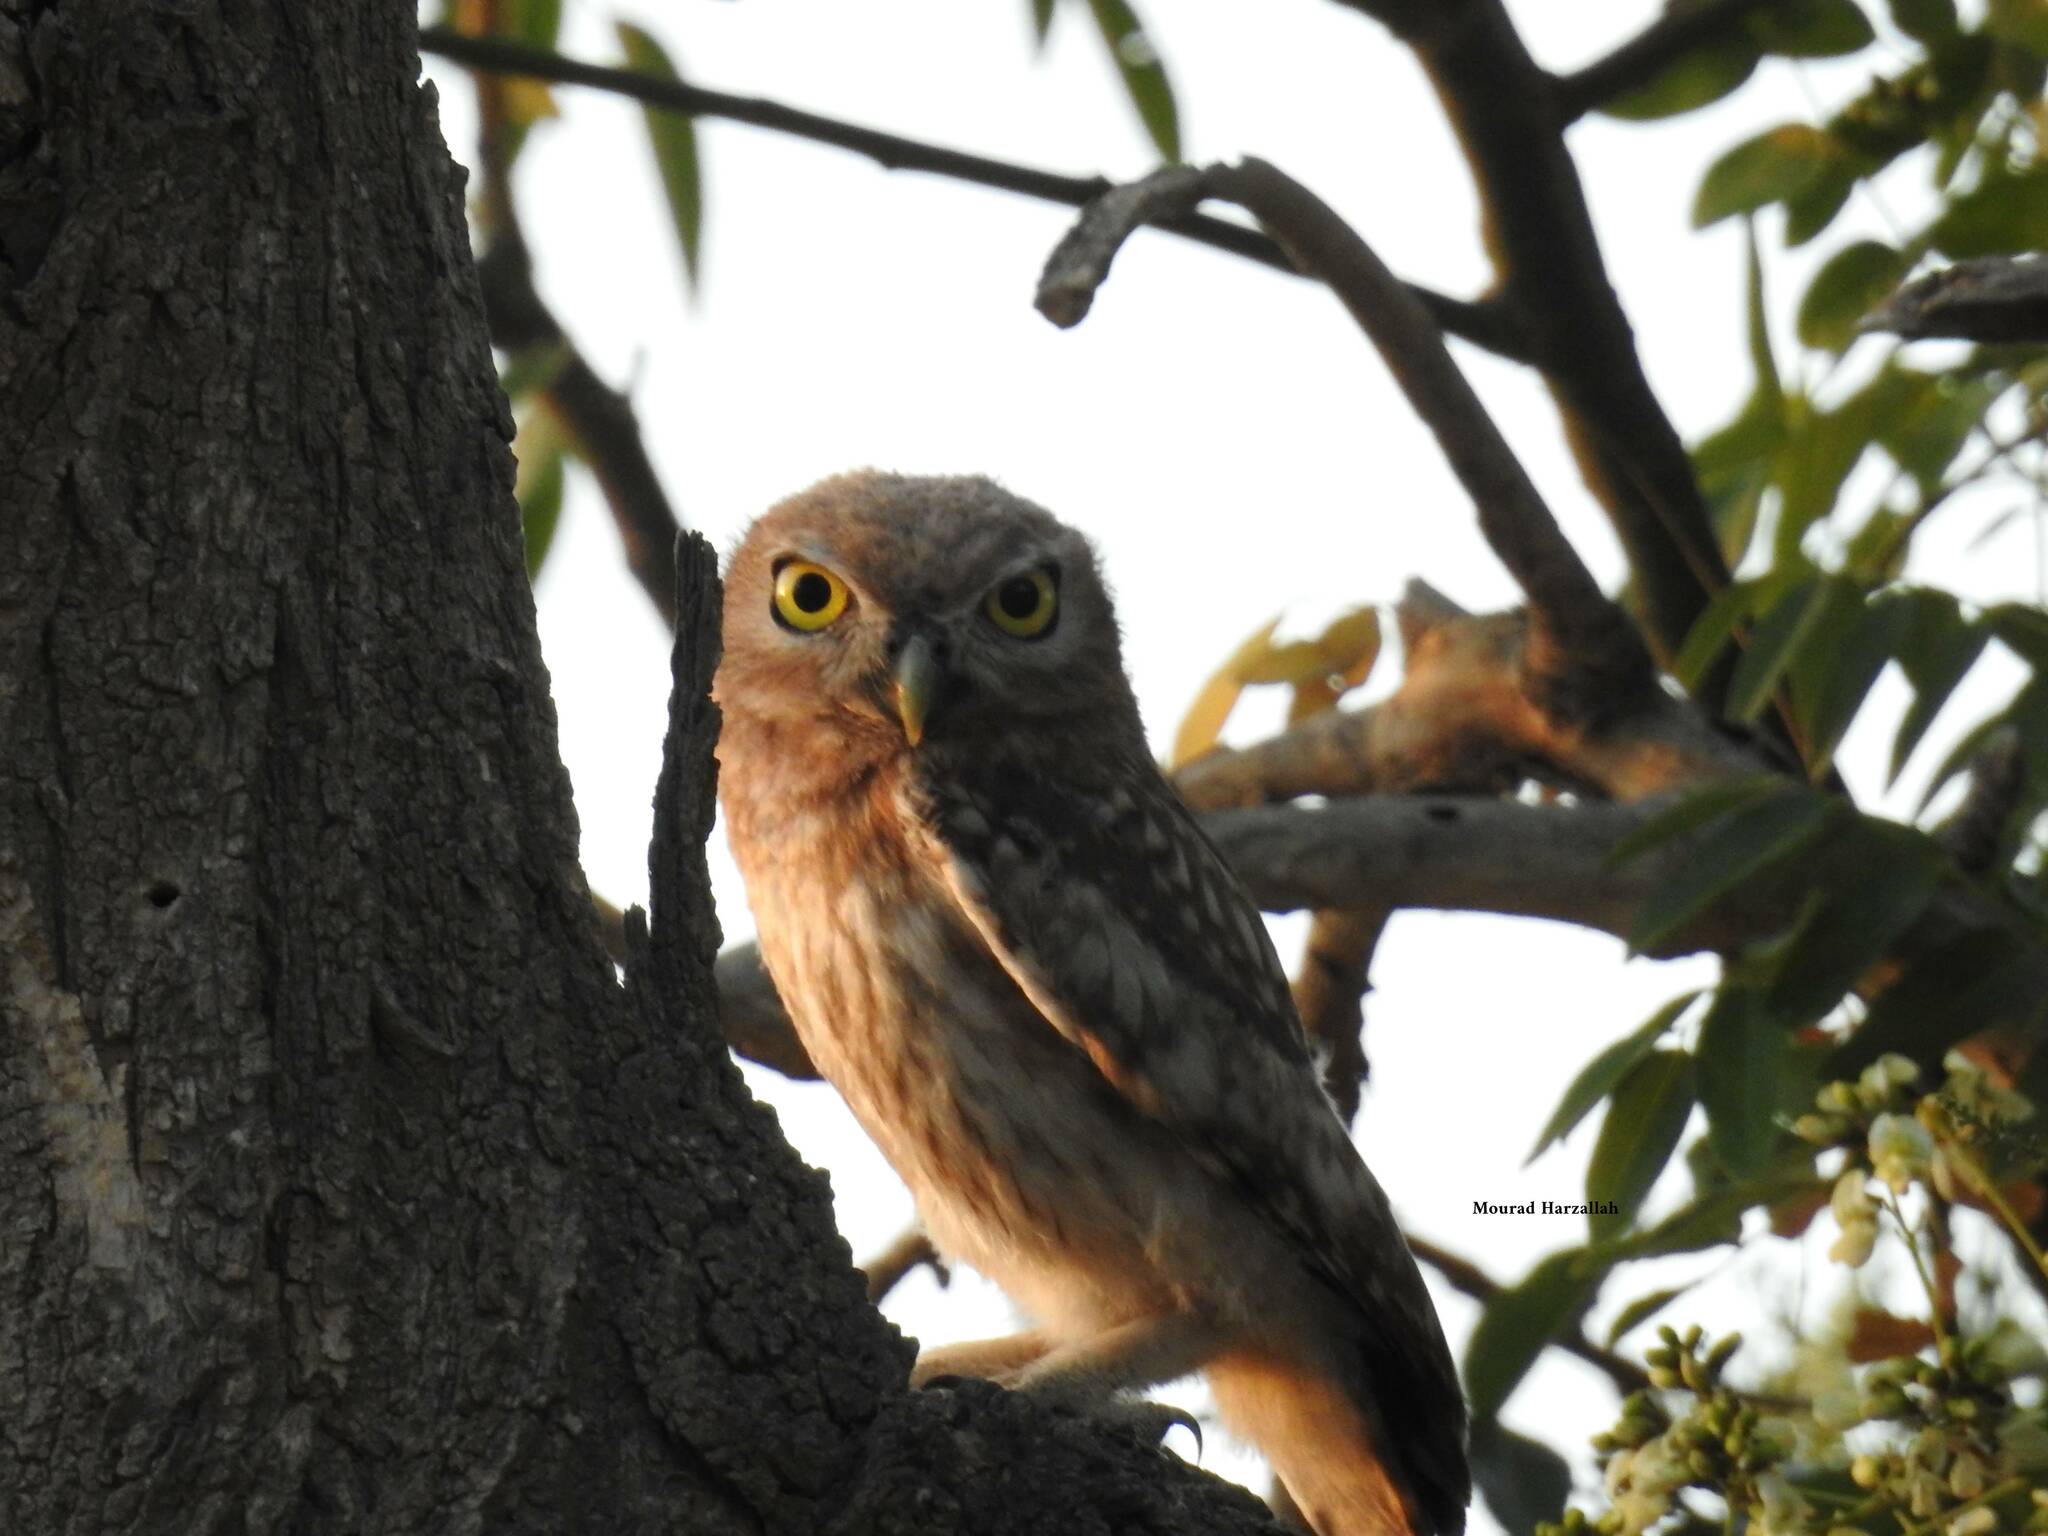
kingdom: Animalia
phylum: Chordata
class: Aves
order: Strigiformes
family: Strigidae
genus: Athene
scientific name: Athene noctua
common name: Little owl
